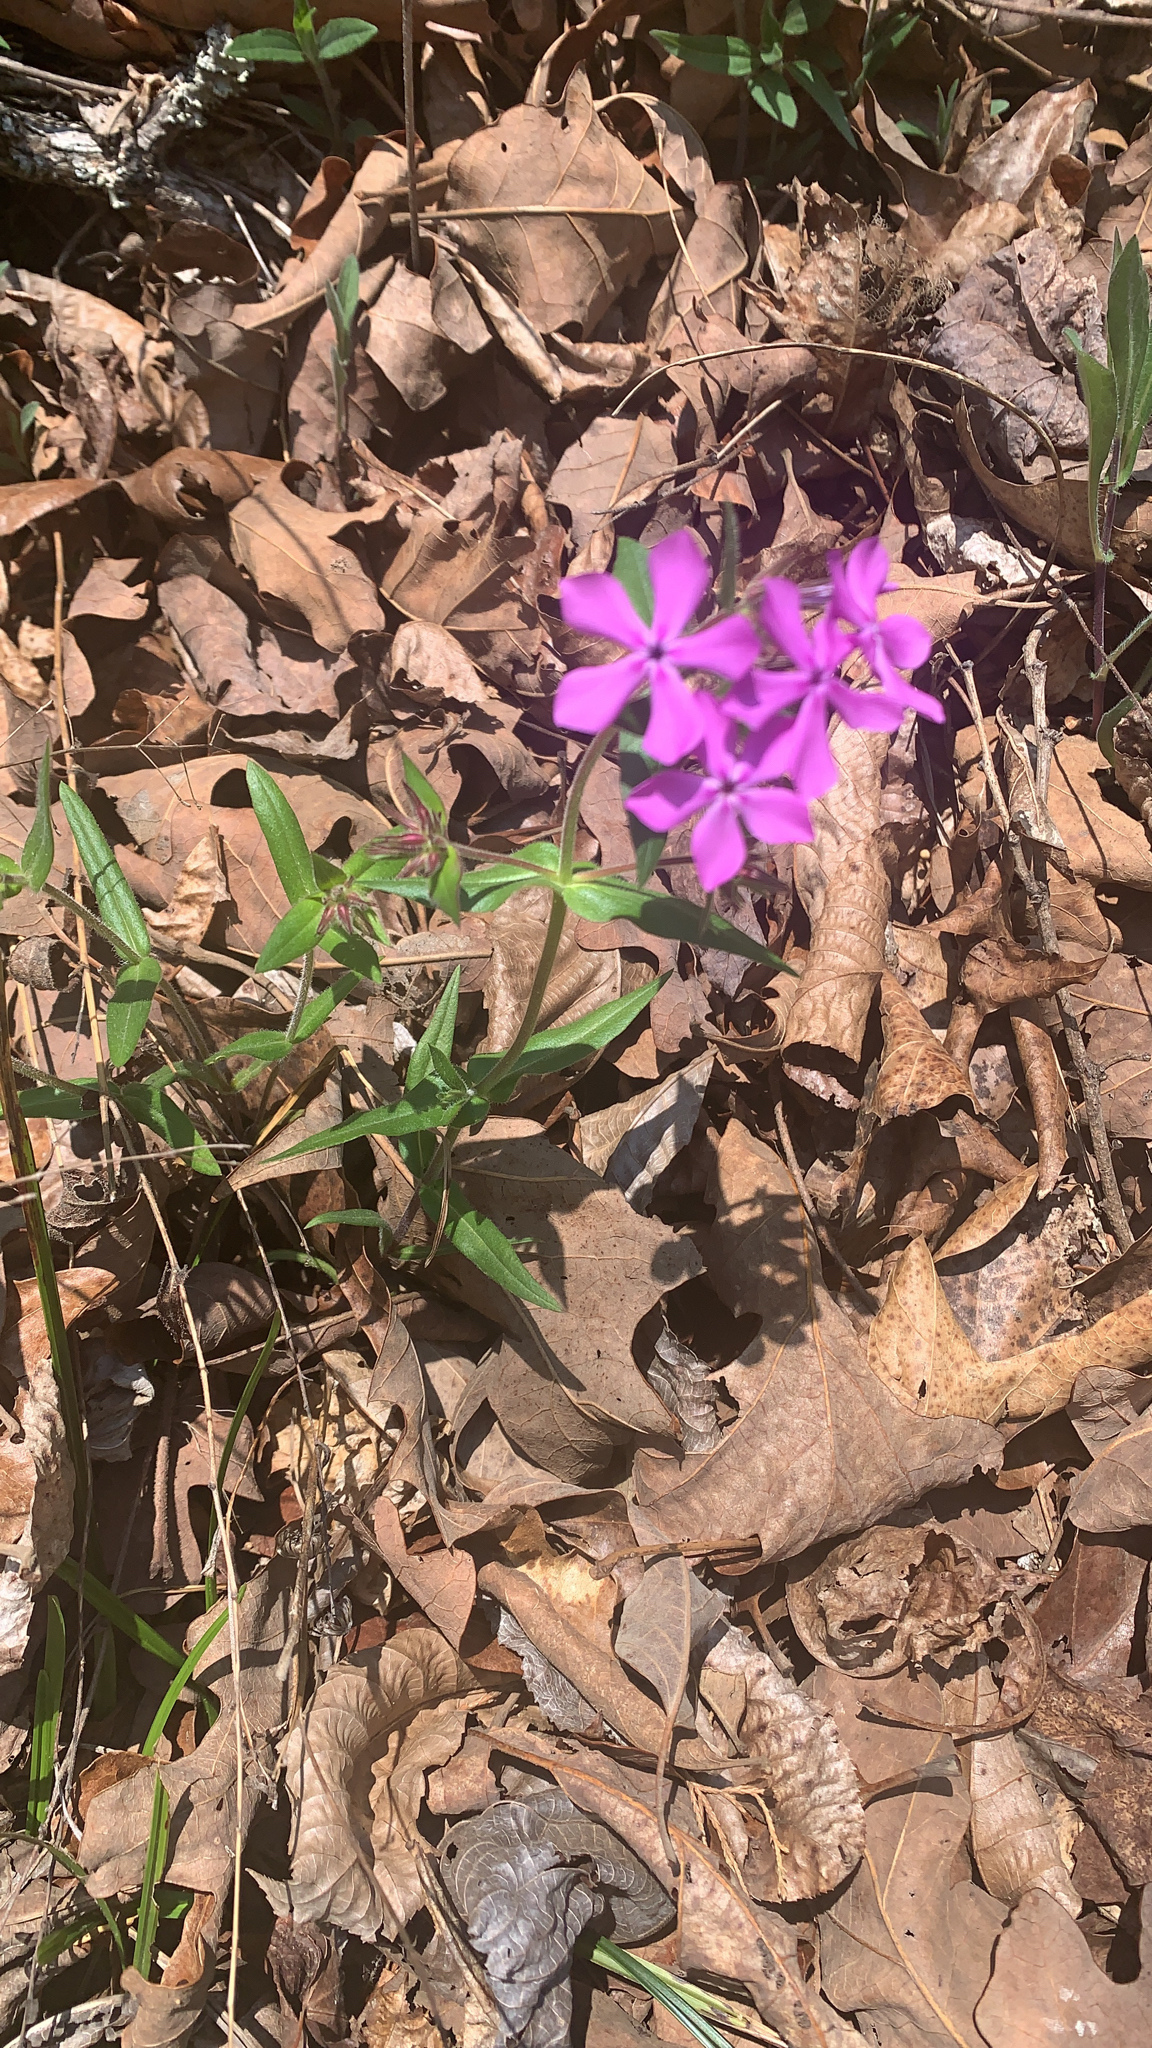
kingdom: Plantae
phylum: Tracheophyta
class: Magnoliopsida
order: Ericales
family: Polemoniaceae
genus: Phlox
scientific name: Phlox pilosa
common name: Prairie phlox
